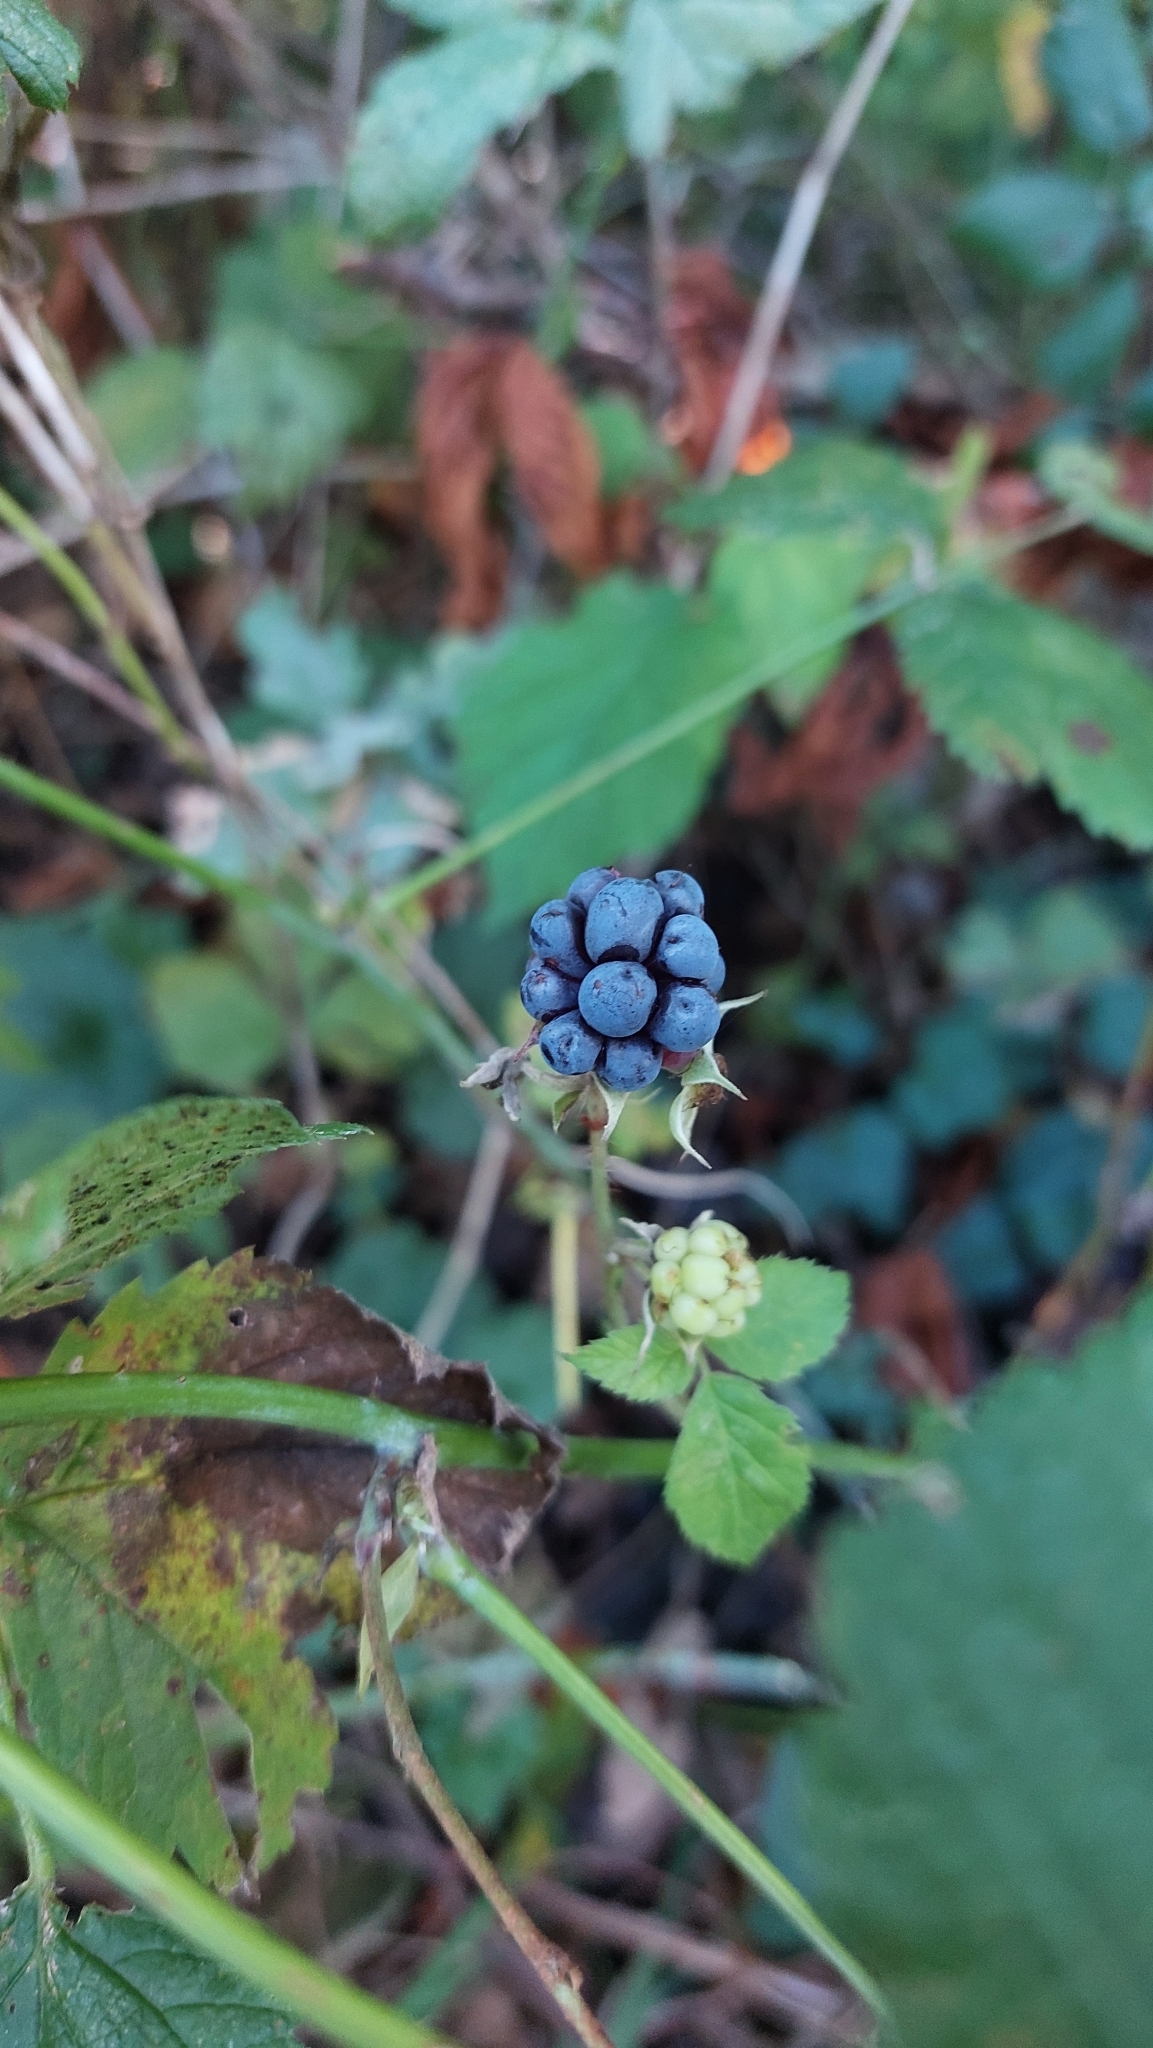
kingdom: Plantae
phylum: Tracheophyta
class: Magnoliopsida
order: Rosales
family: Rosaceae
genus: Rubus
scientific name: Rubus caesius
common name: Dewberry
